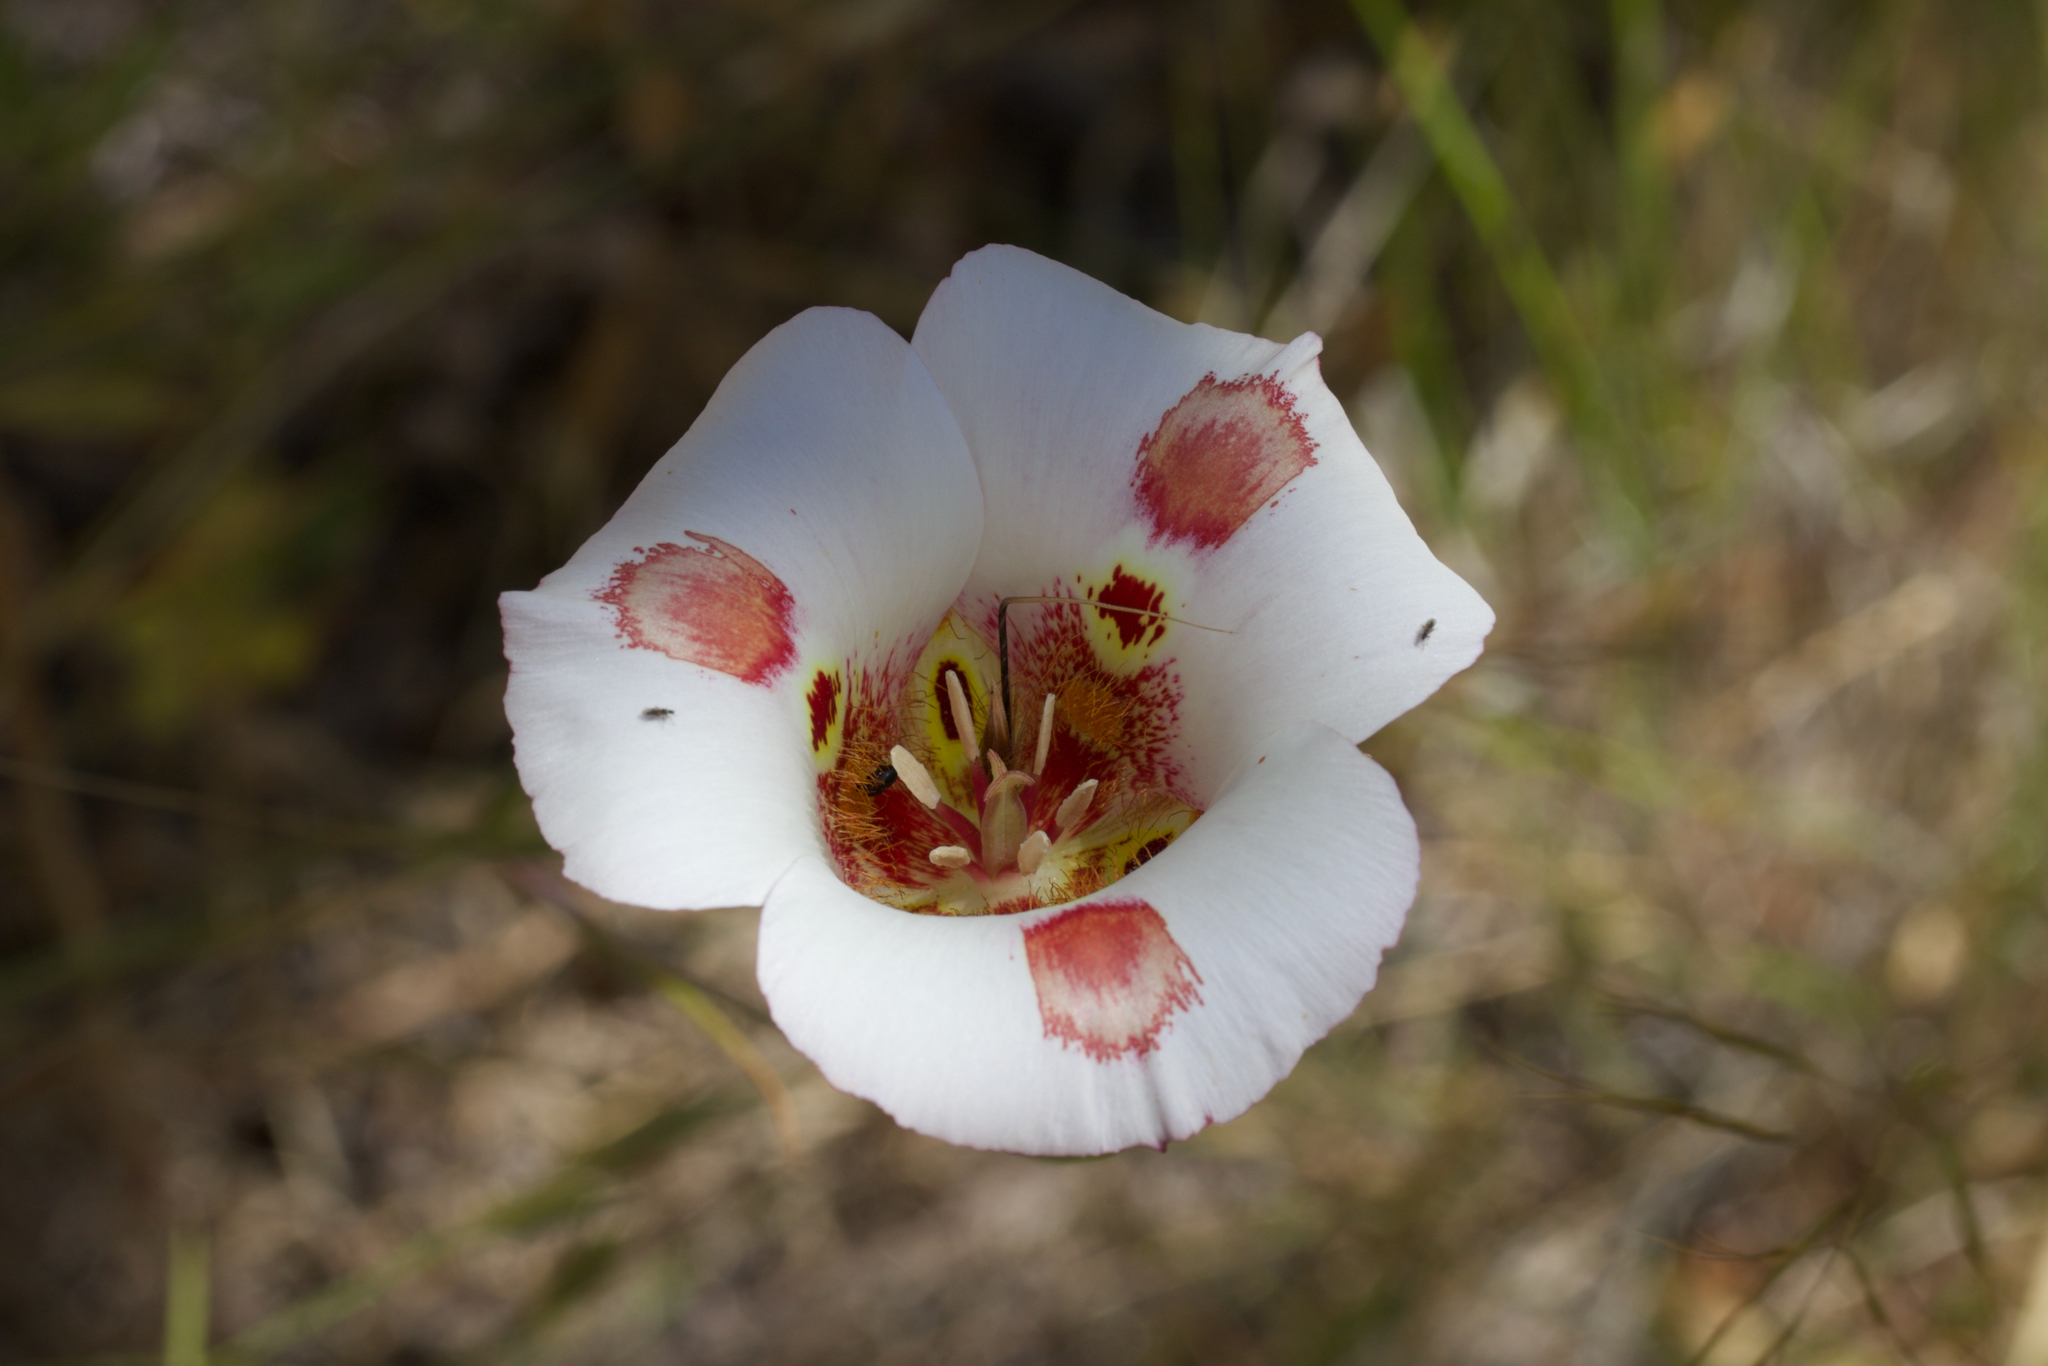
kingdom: Plantae
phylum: Tracheophyta
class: Liliopsida
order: Liliales
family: Liliaceae
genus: Calochortus
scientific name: Calochortus venustus
